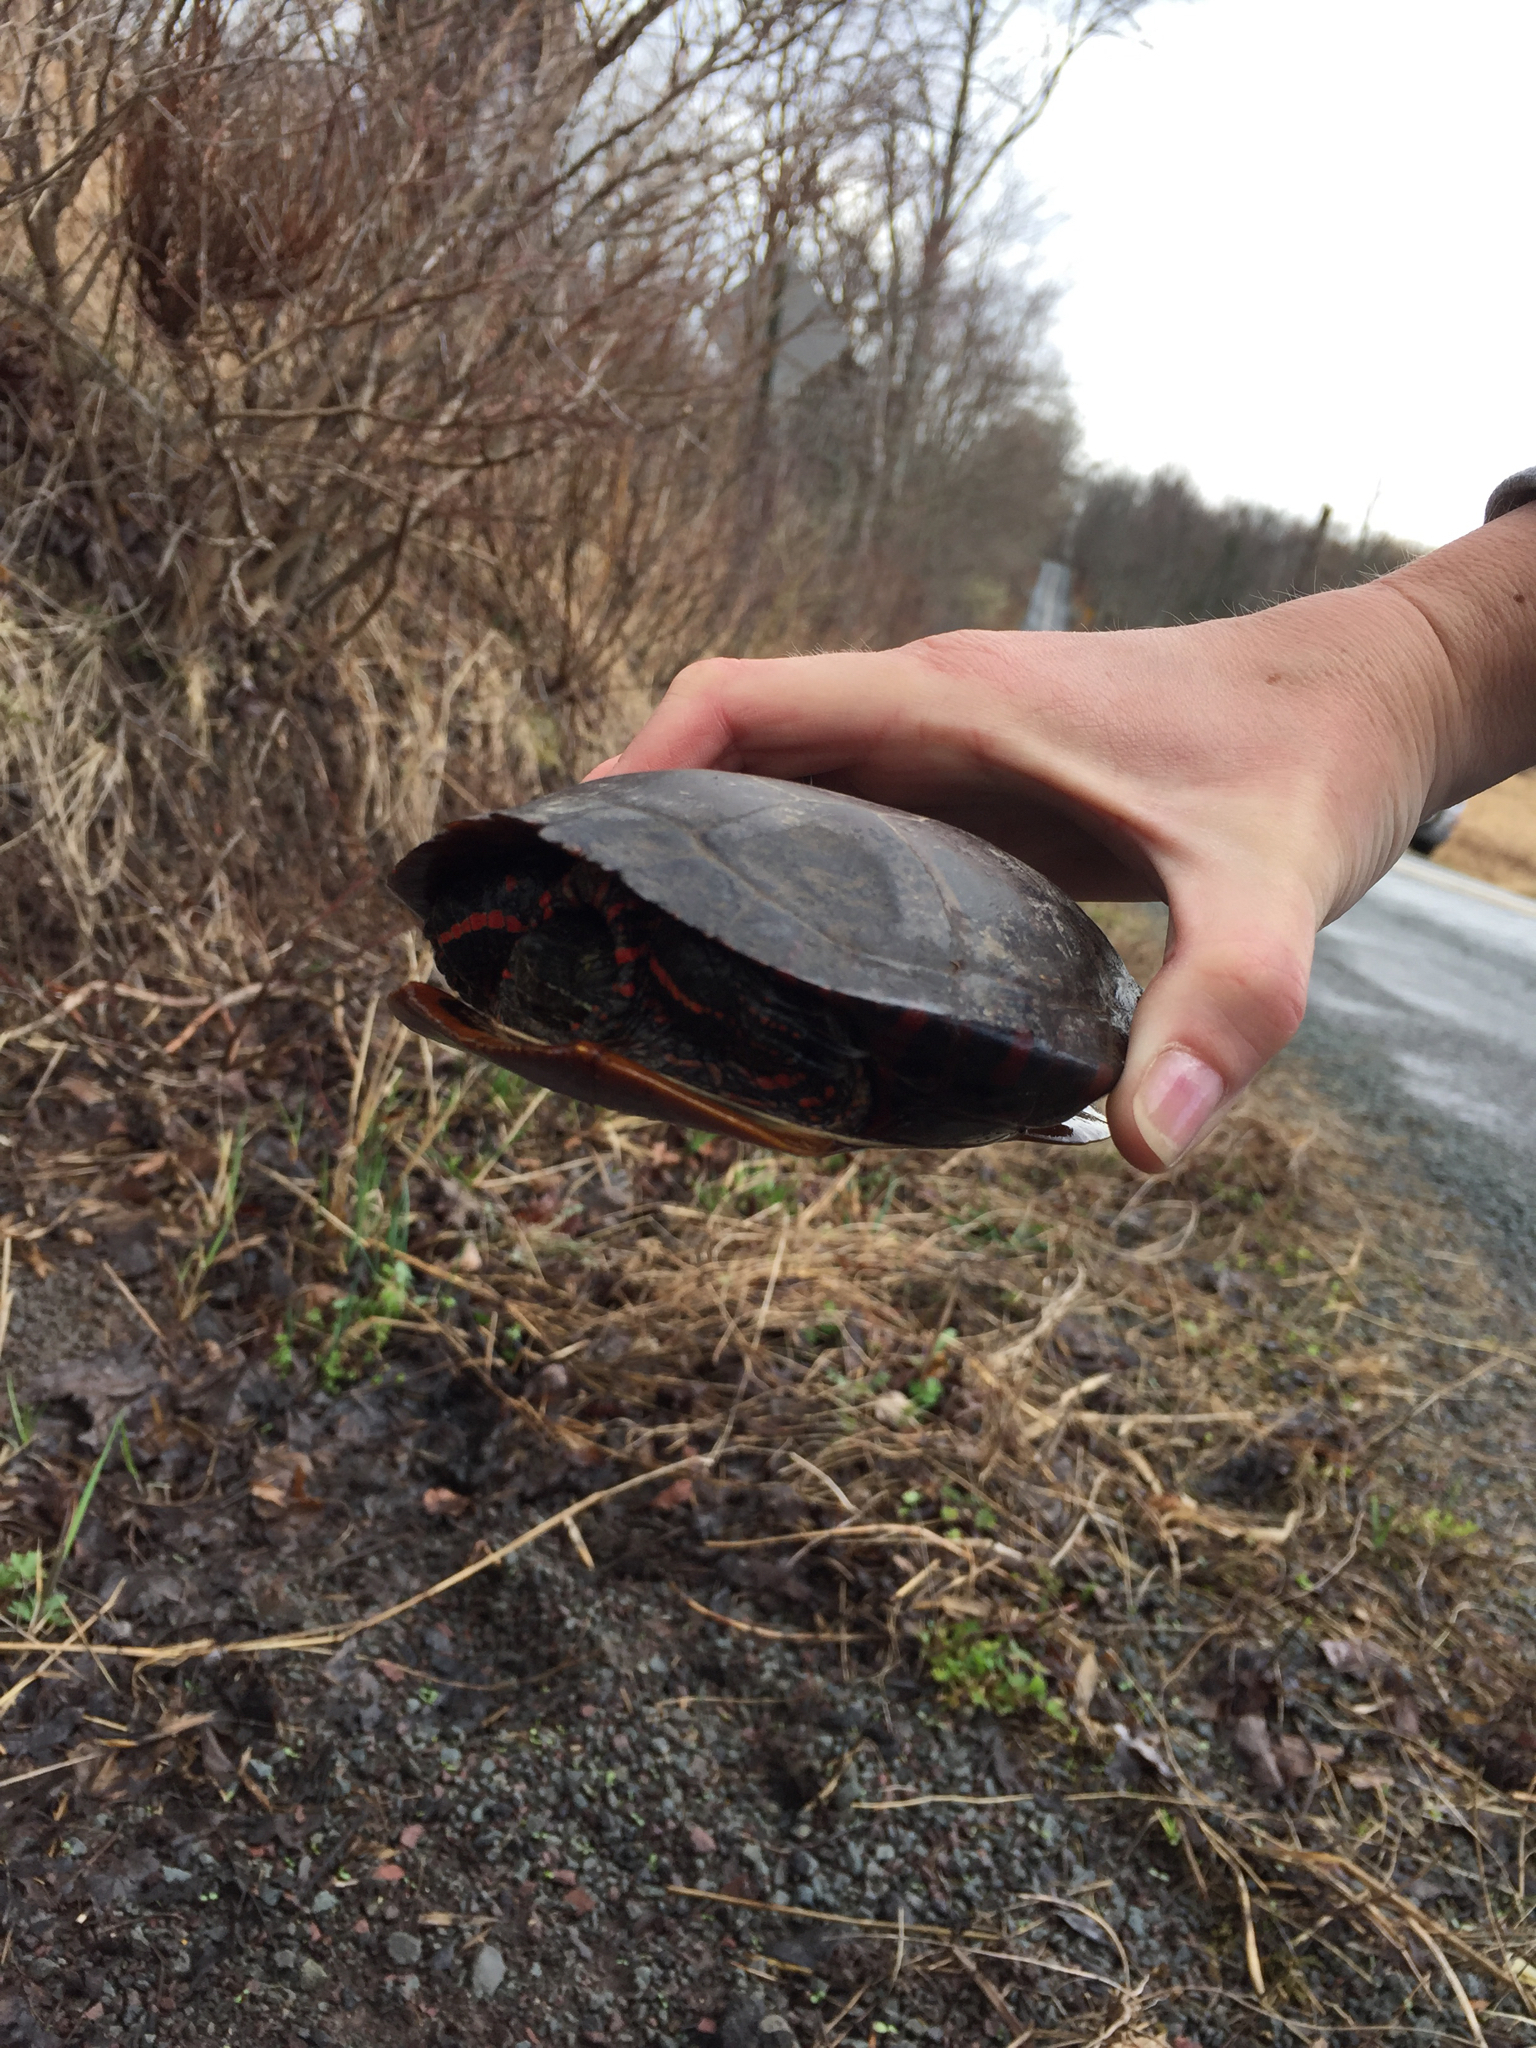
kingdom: Animalia
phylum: Chordata
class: Testudines
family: Emydidae
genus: Chrysemys
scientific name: Chrysemys picta
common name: Painted turtle
